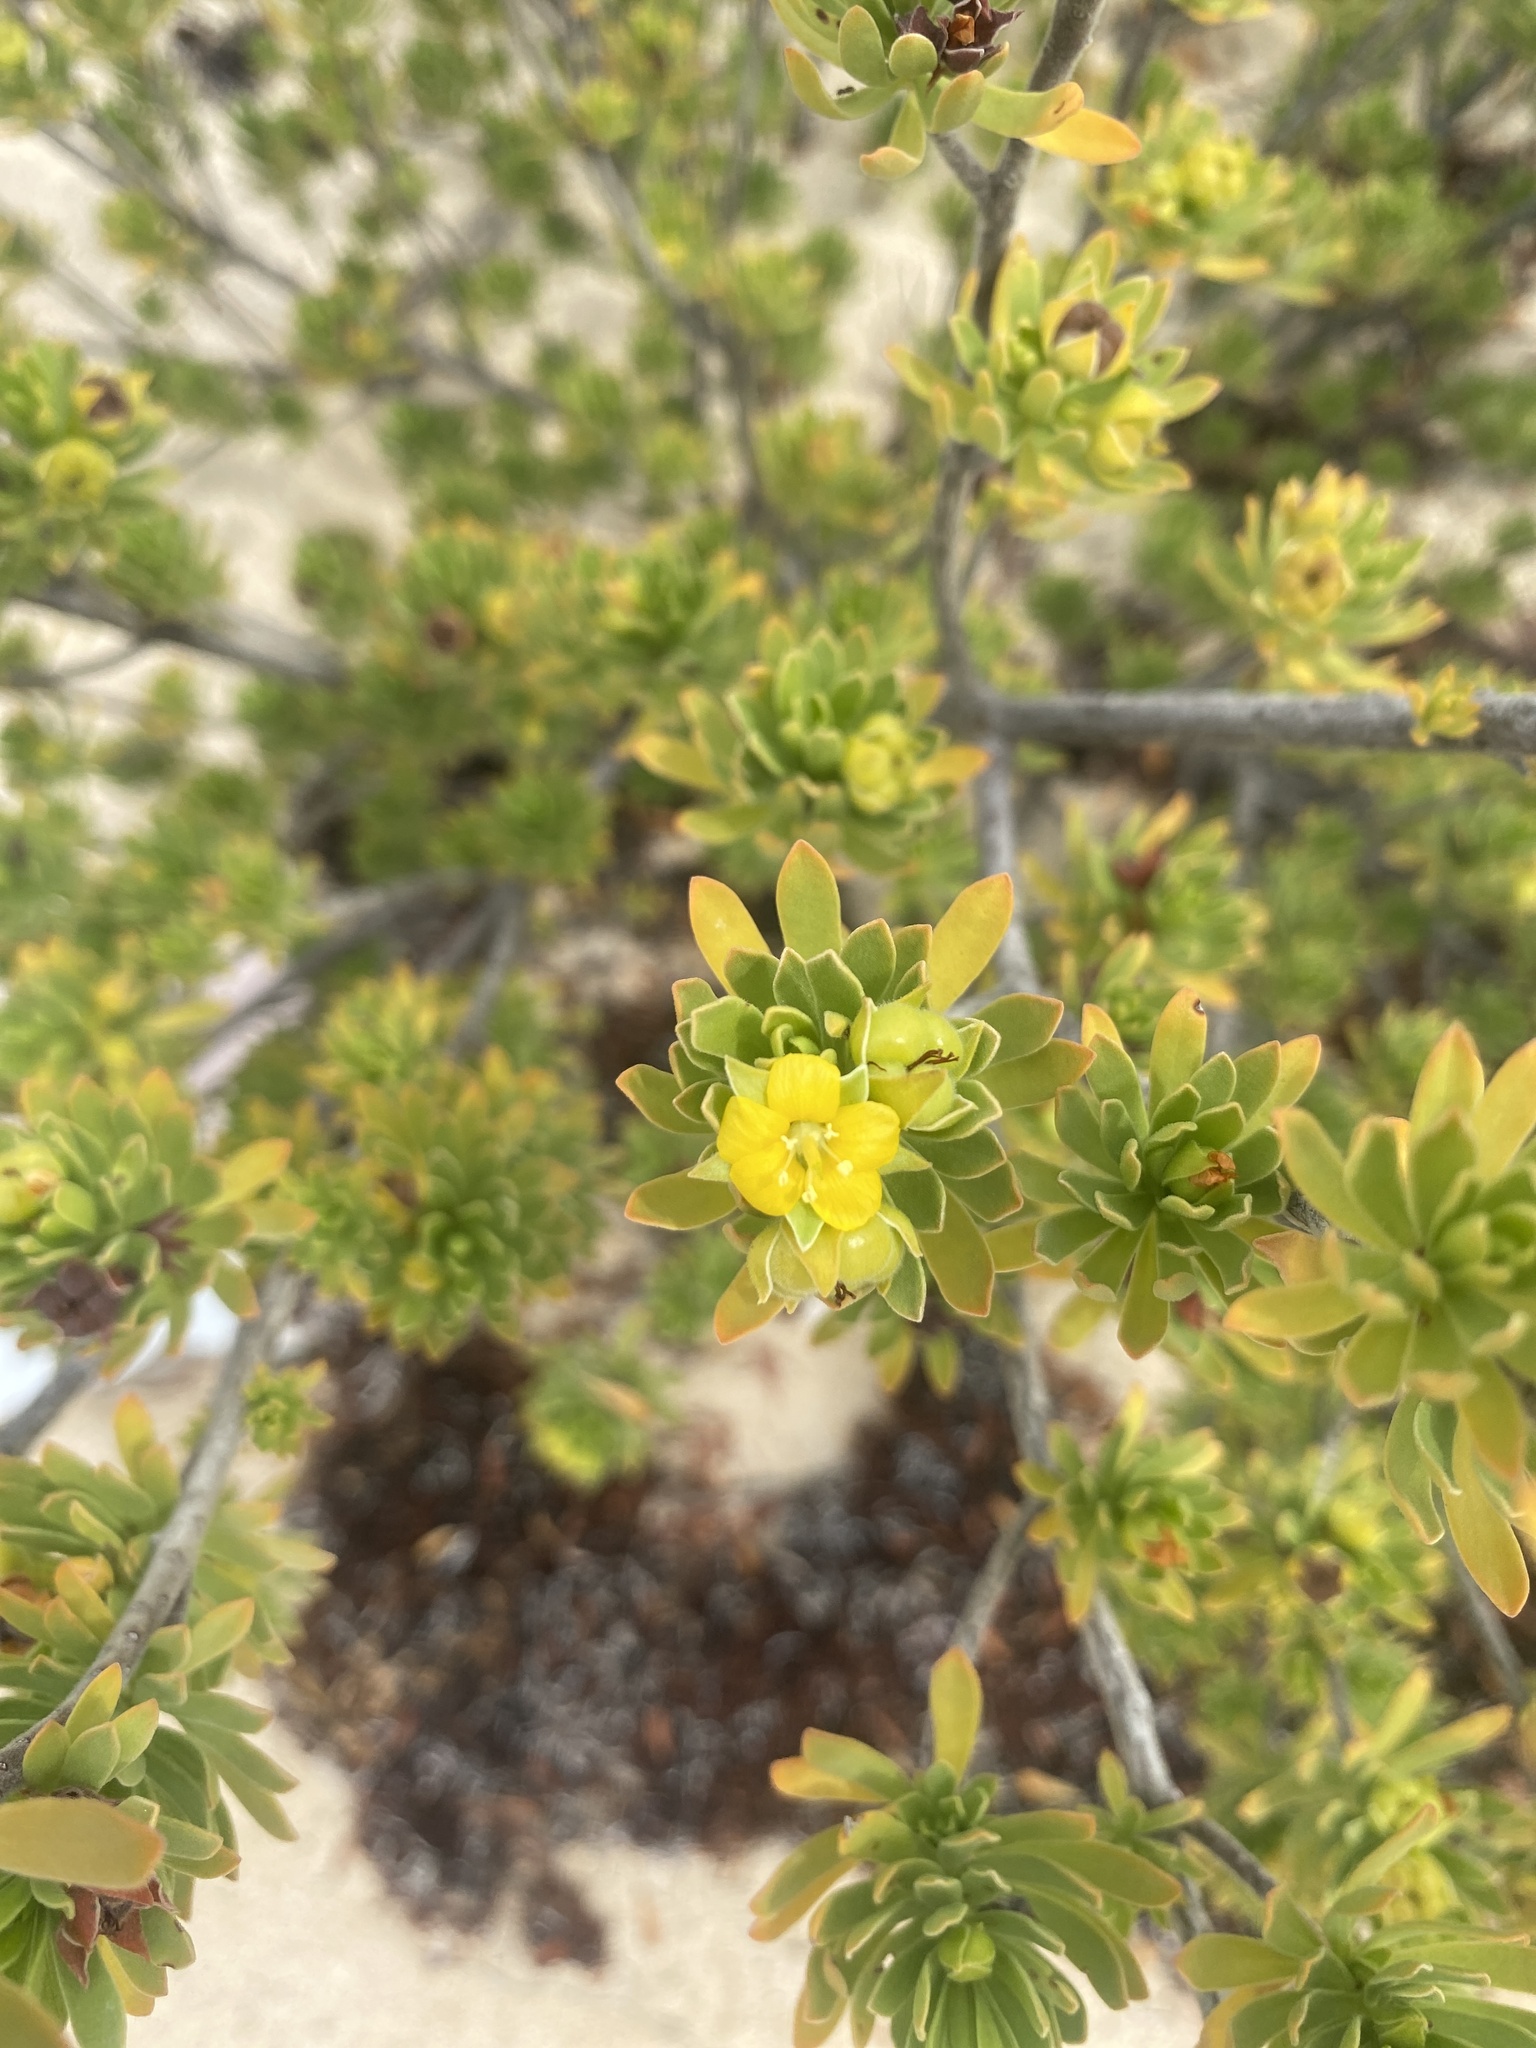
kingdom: Plantae
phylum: Tracheophyta
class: Magnoliopsida
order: Fabales
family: Surianaceae
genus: Suriana
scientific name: Suriana maritima
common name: Bay-cedar
